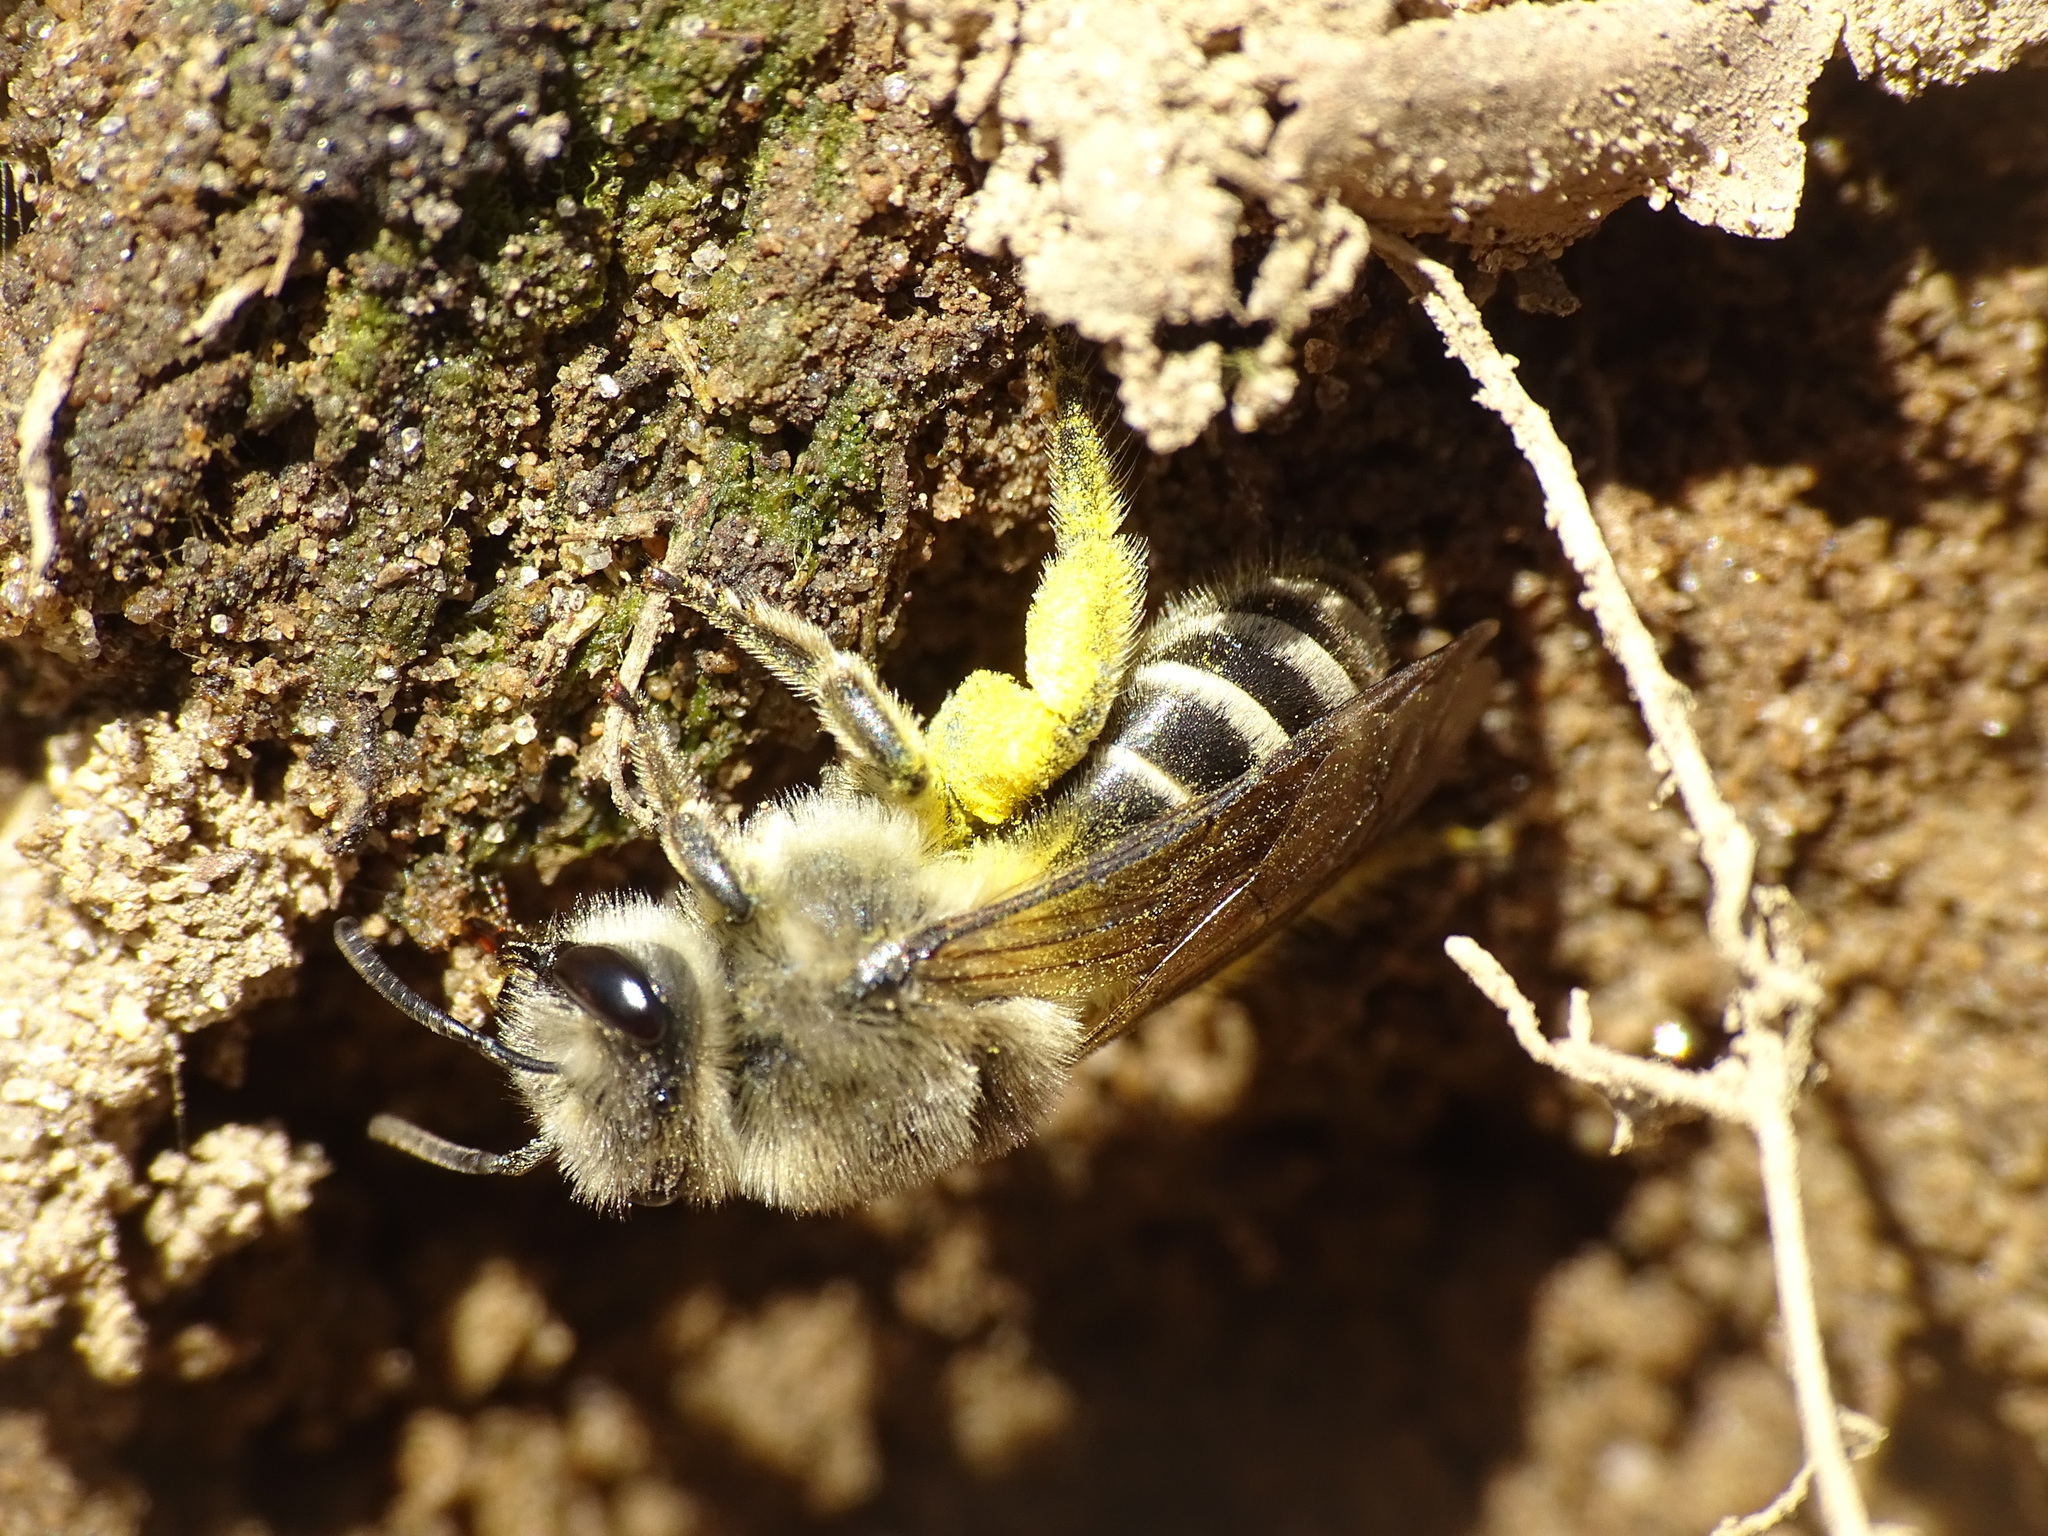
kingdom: Animalia
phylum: Arthropoda
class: Insecta
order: Hymenoptera
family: Colletidae
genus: Colletes
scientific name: Colletes inaequalis
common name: Unequal cellophane bee
